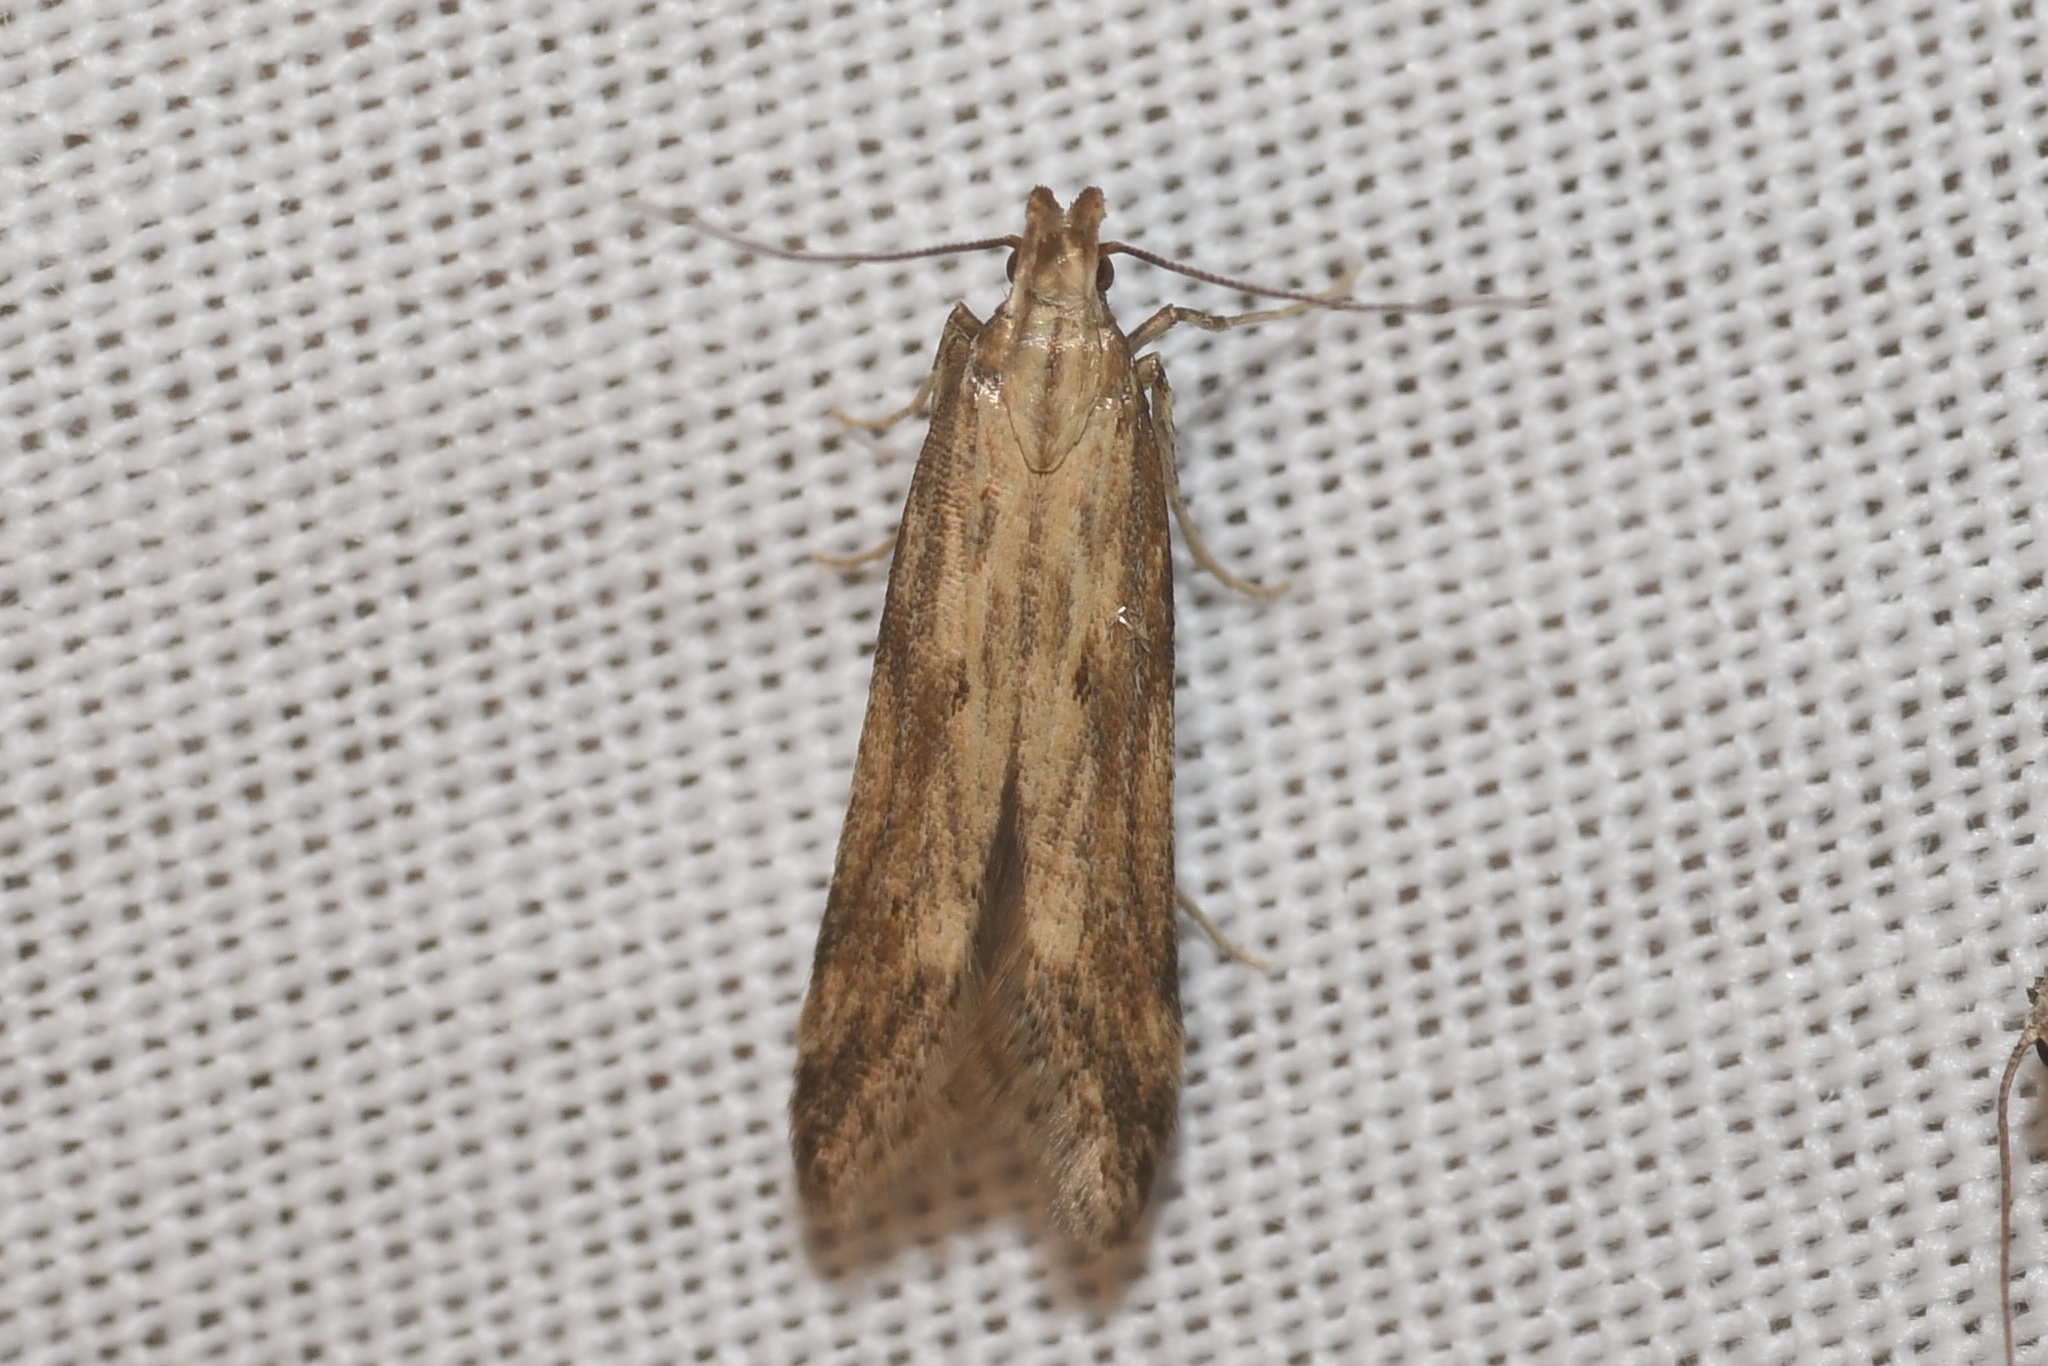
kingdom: Animalia
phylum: Arthropoda
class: Insecta
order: Lepidoptera
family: Gelechiidae
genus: Metzneria
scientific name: Metzneria lappella
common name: Burdock neb
